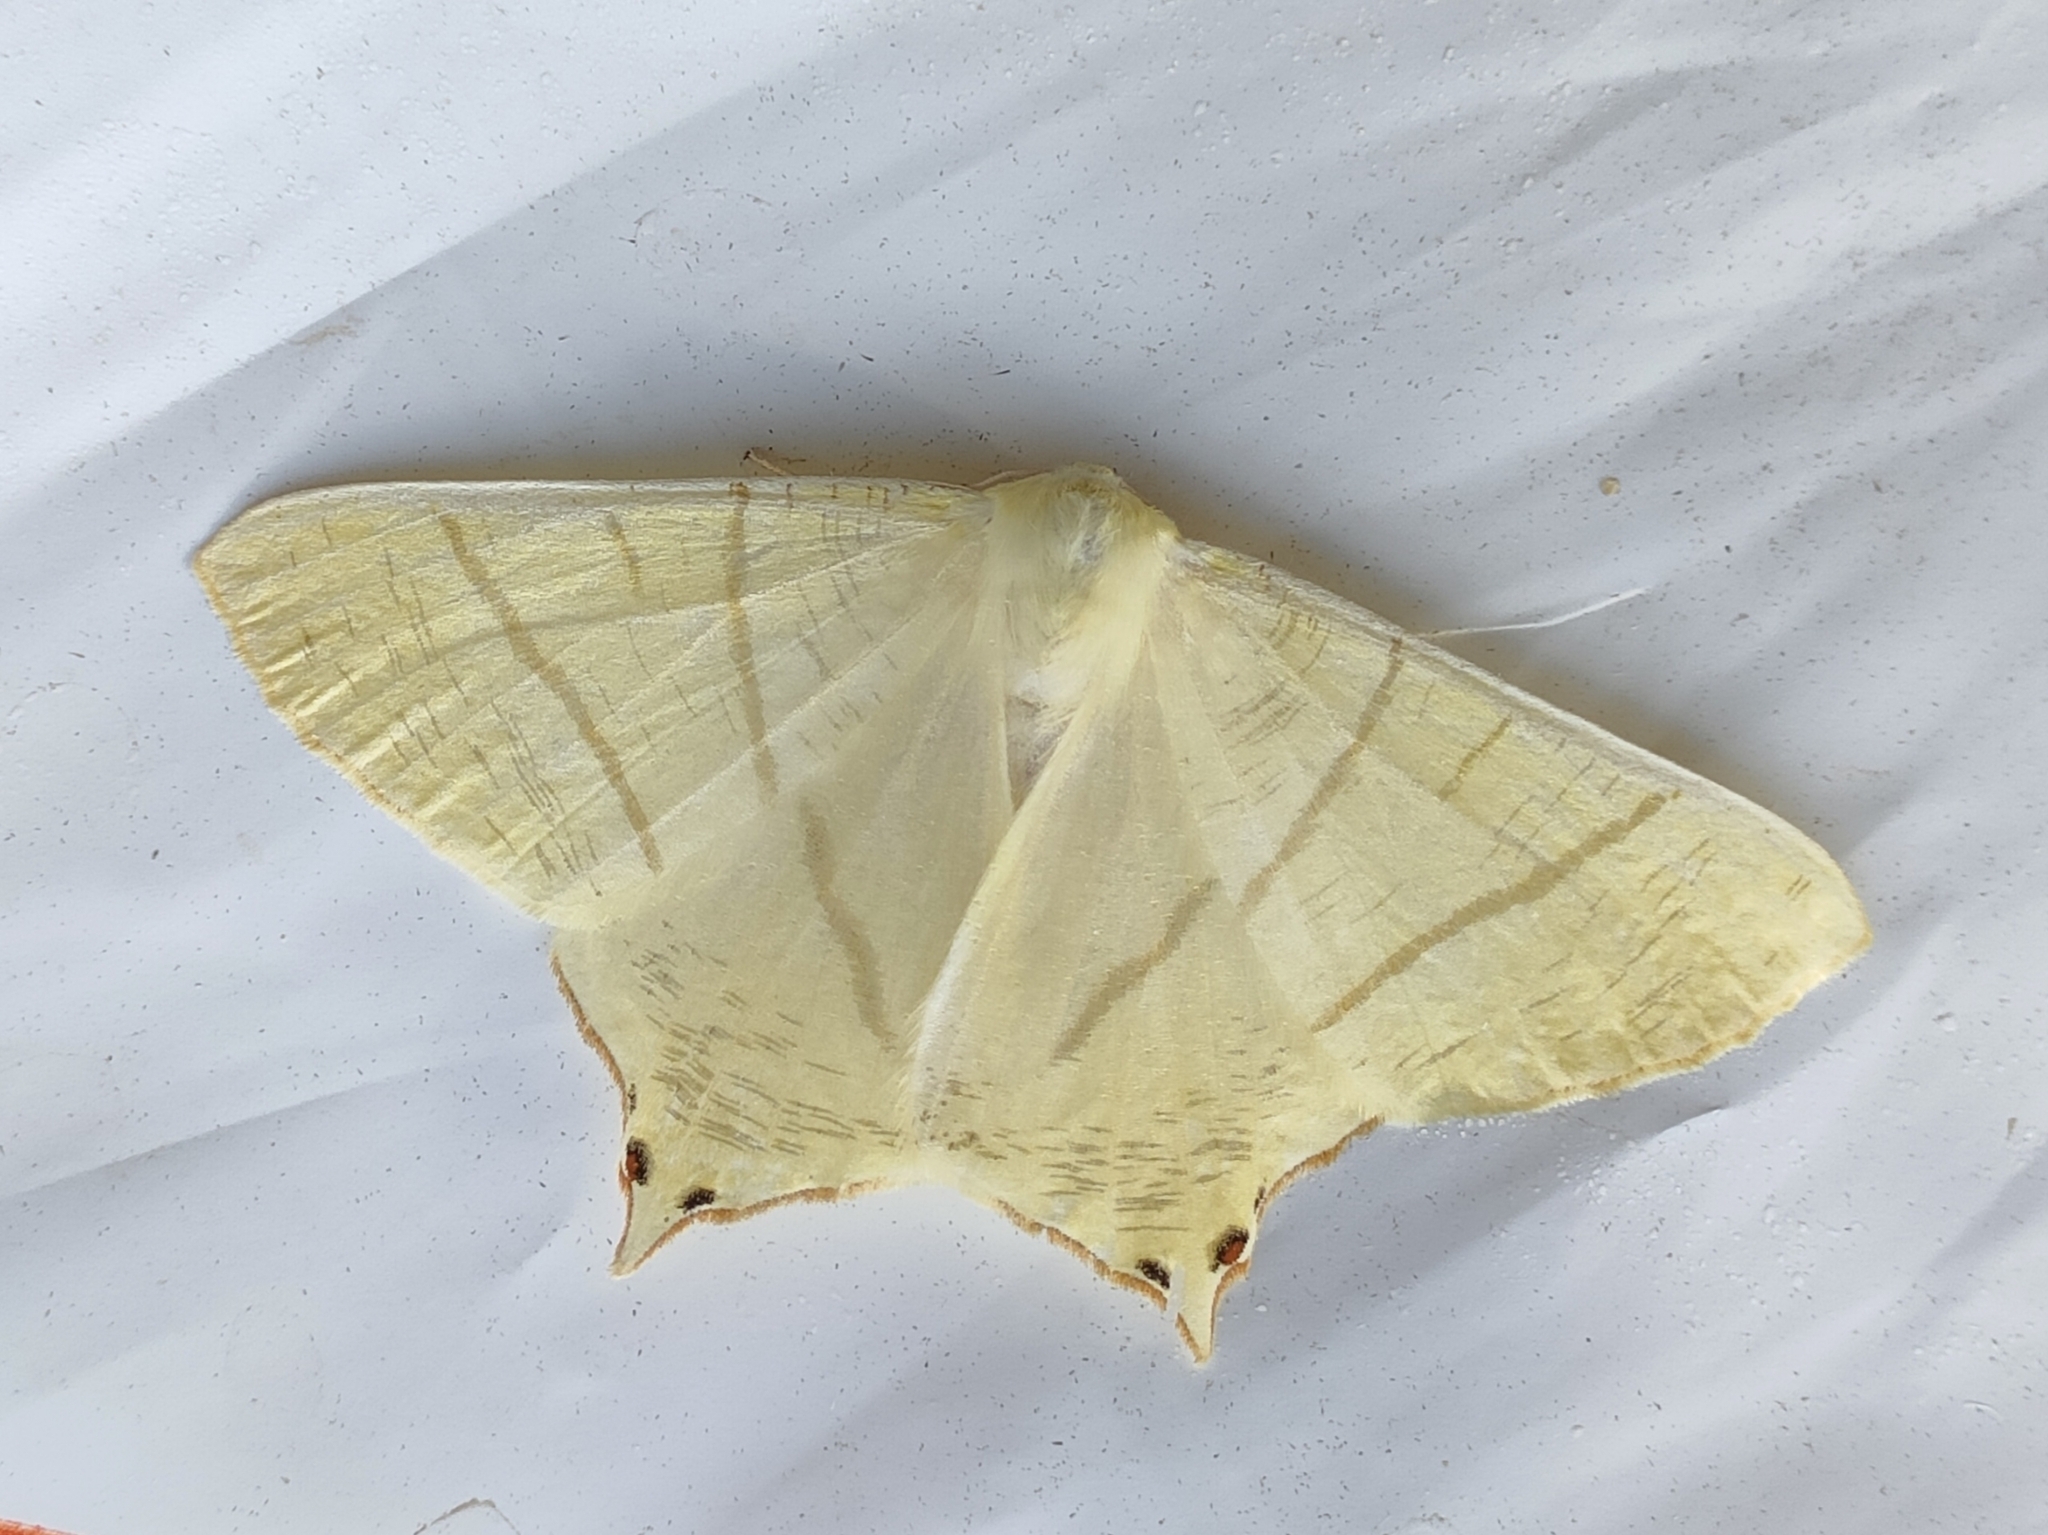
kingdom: Animalia
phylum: Arthropoda
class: Insecta
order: Lepidoptera
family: Geometridae
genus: Ourapteryx
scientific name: Ourapteryx sambucaria
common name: Swallow-tailed moth
